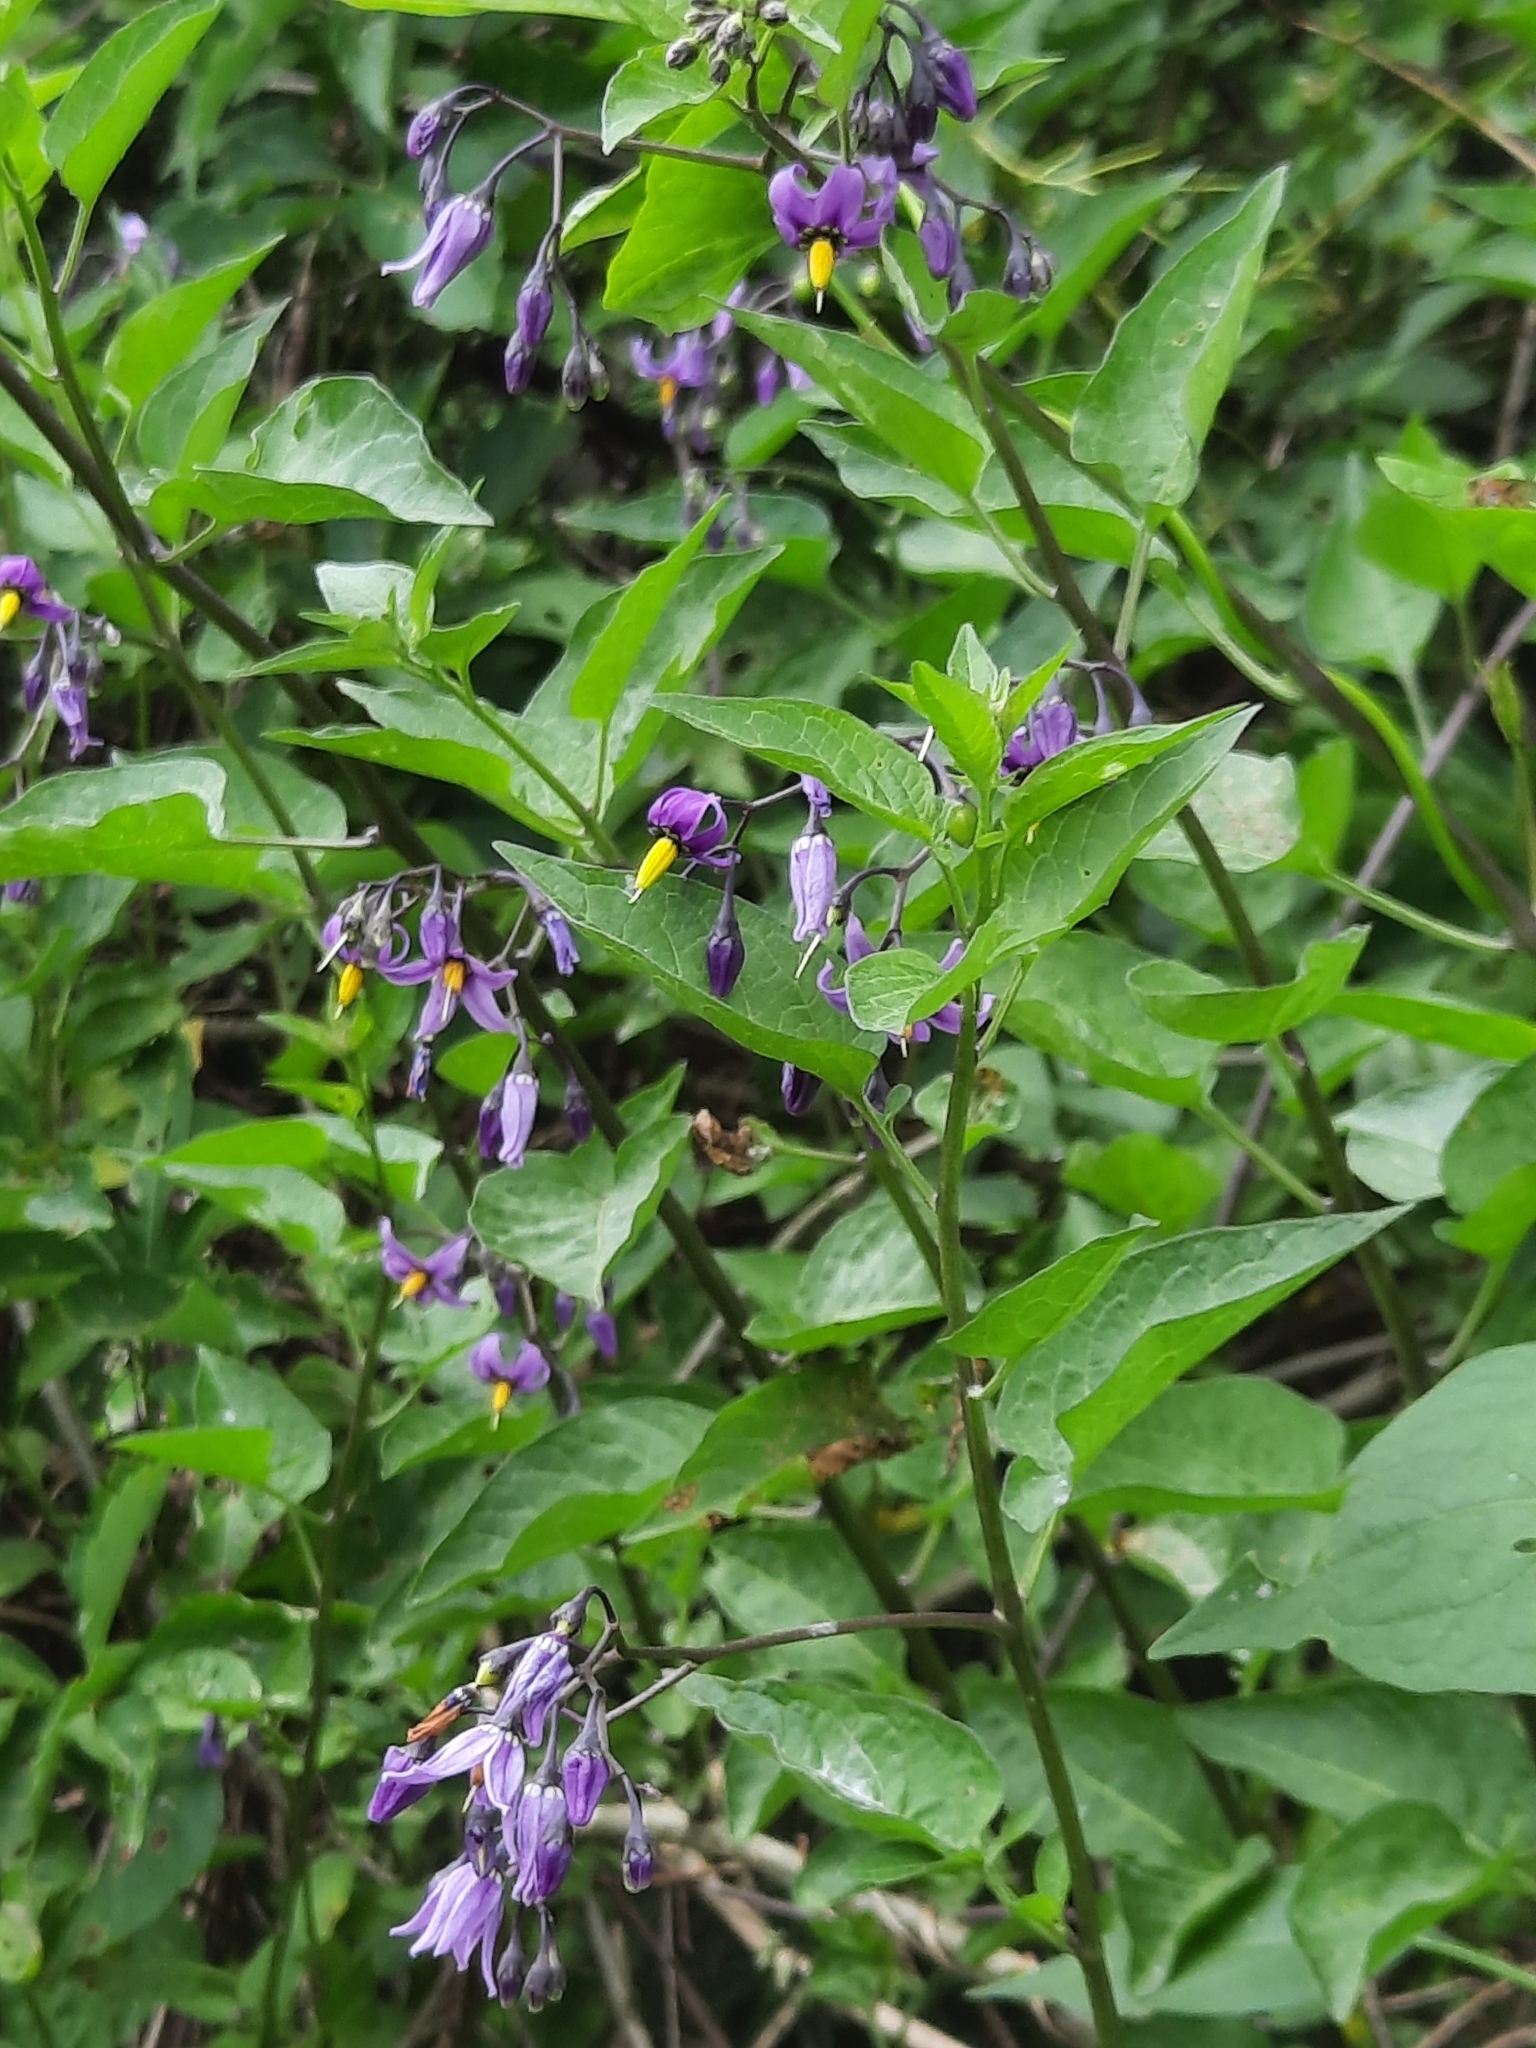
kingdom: Plantae
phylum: Tracheophyta
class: Magnoliopsida
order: Solanales
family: Solanaceae
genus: Solanum
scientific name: Solanum dulcamara
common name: Climbing nightshade
